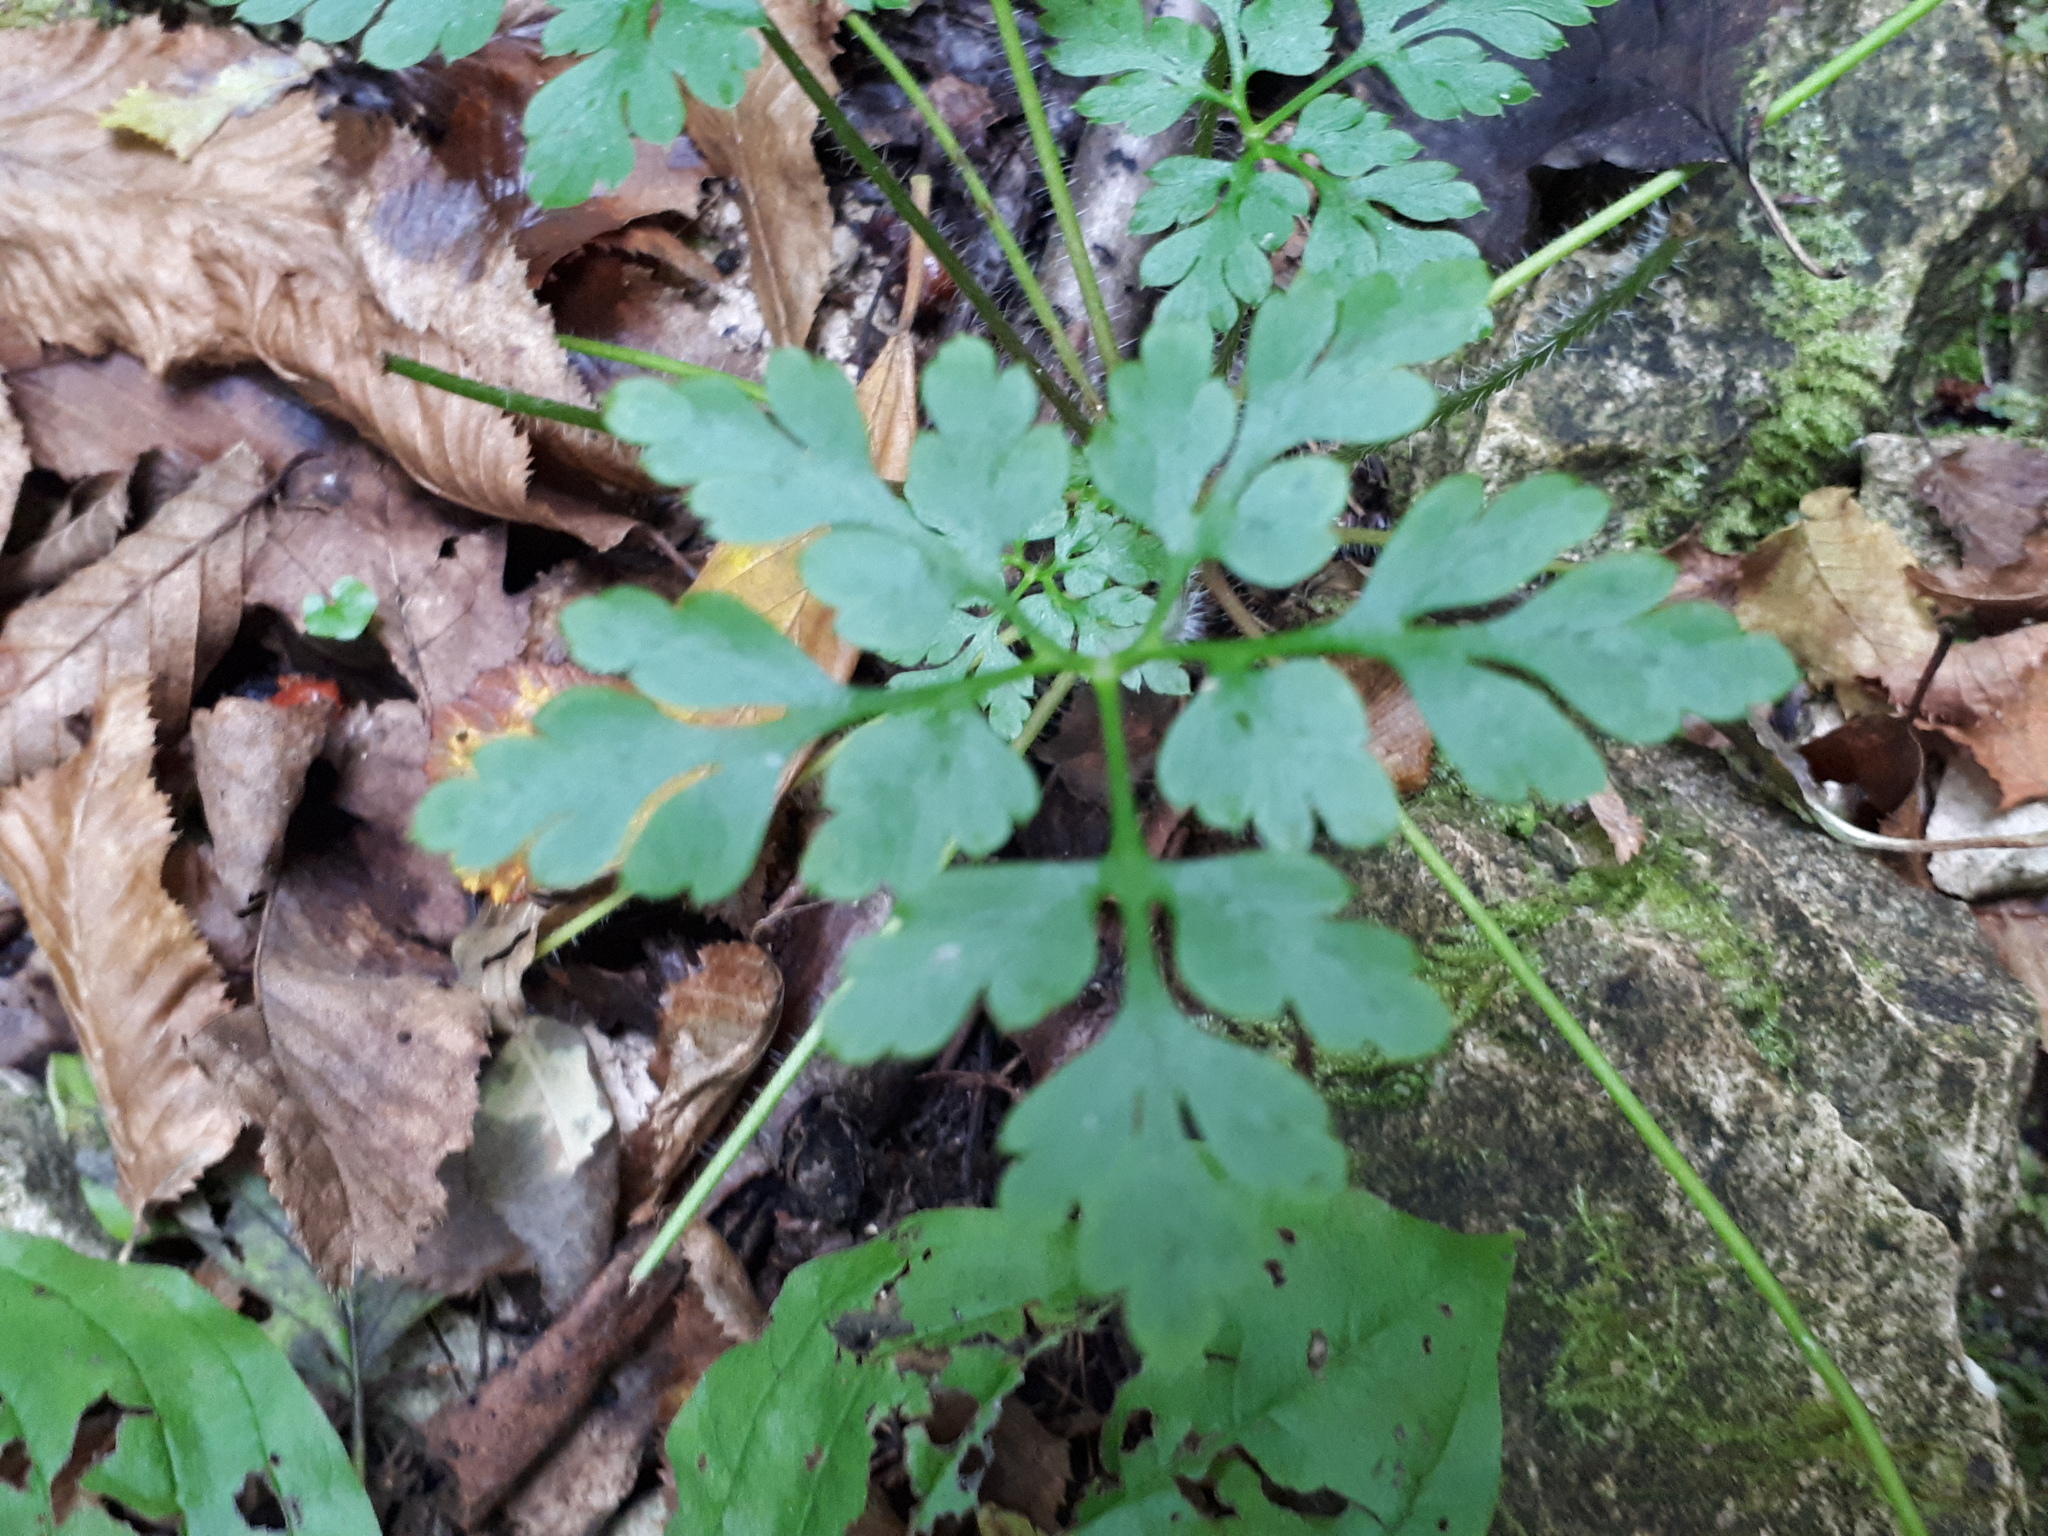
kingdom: Plantae
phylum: Tracheophyta
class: Magnoliopsida
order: Geraniales
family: Geraniaceae
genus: Geranium
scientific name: Geranium robertianum
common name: Herb-robert
